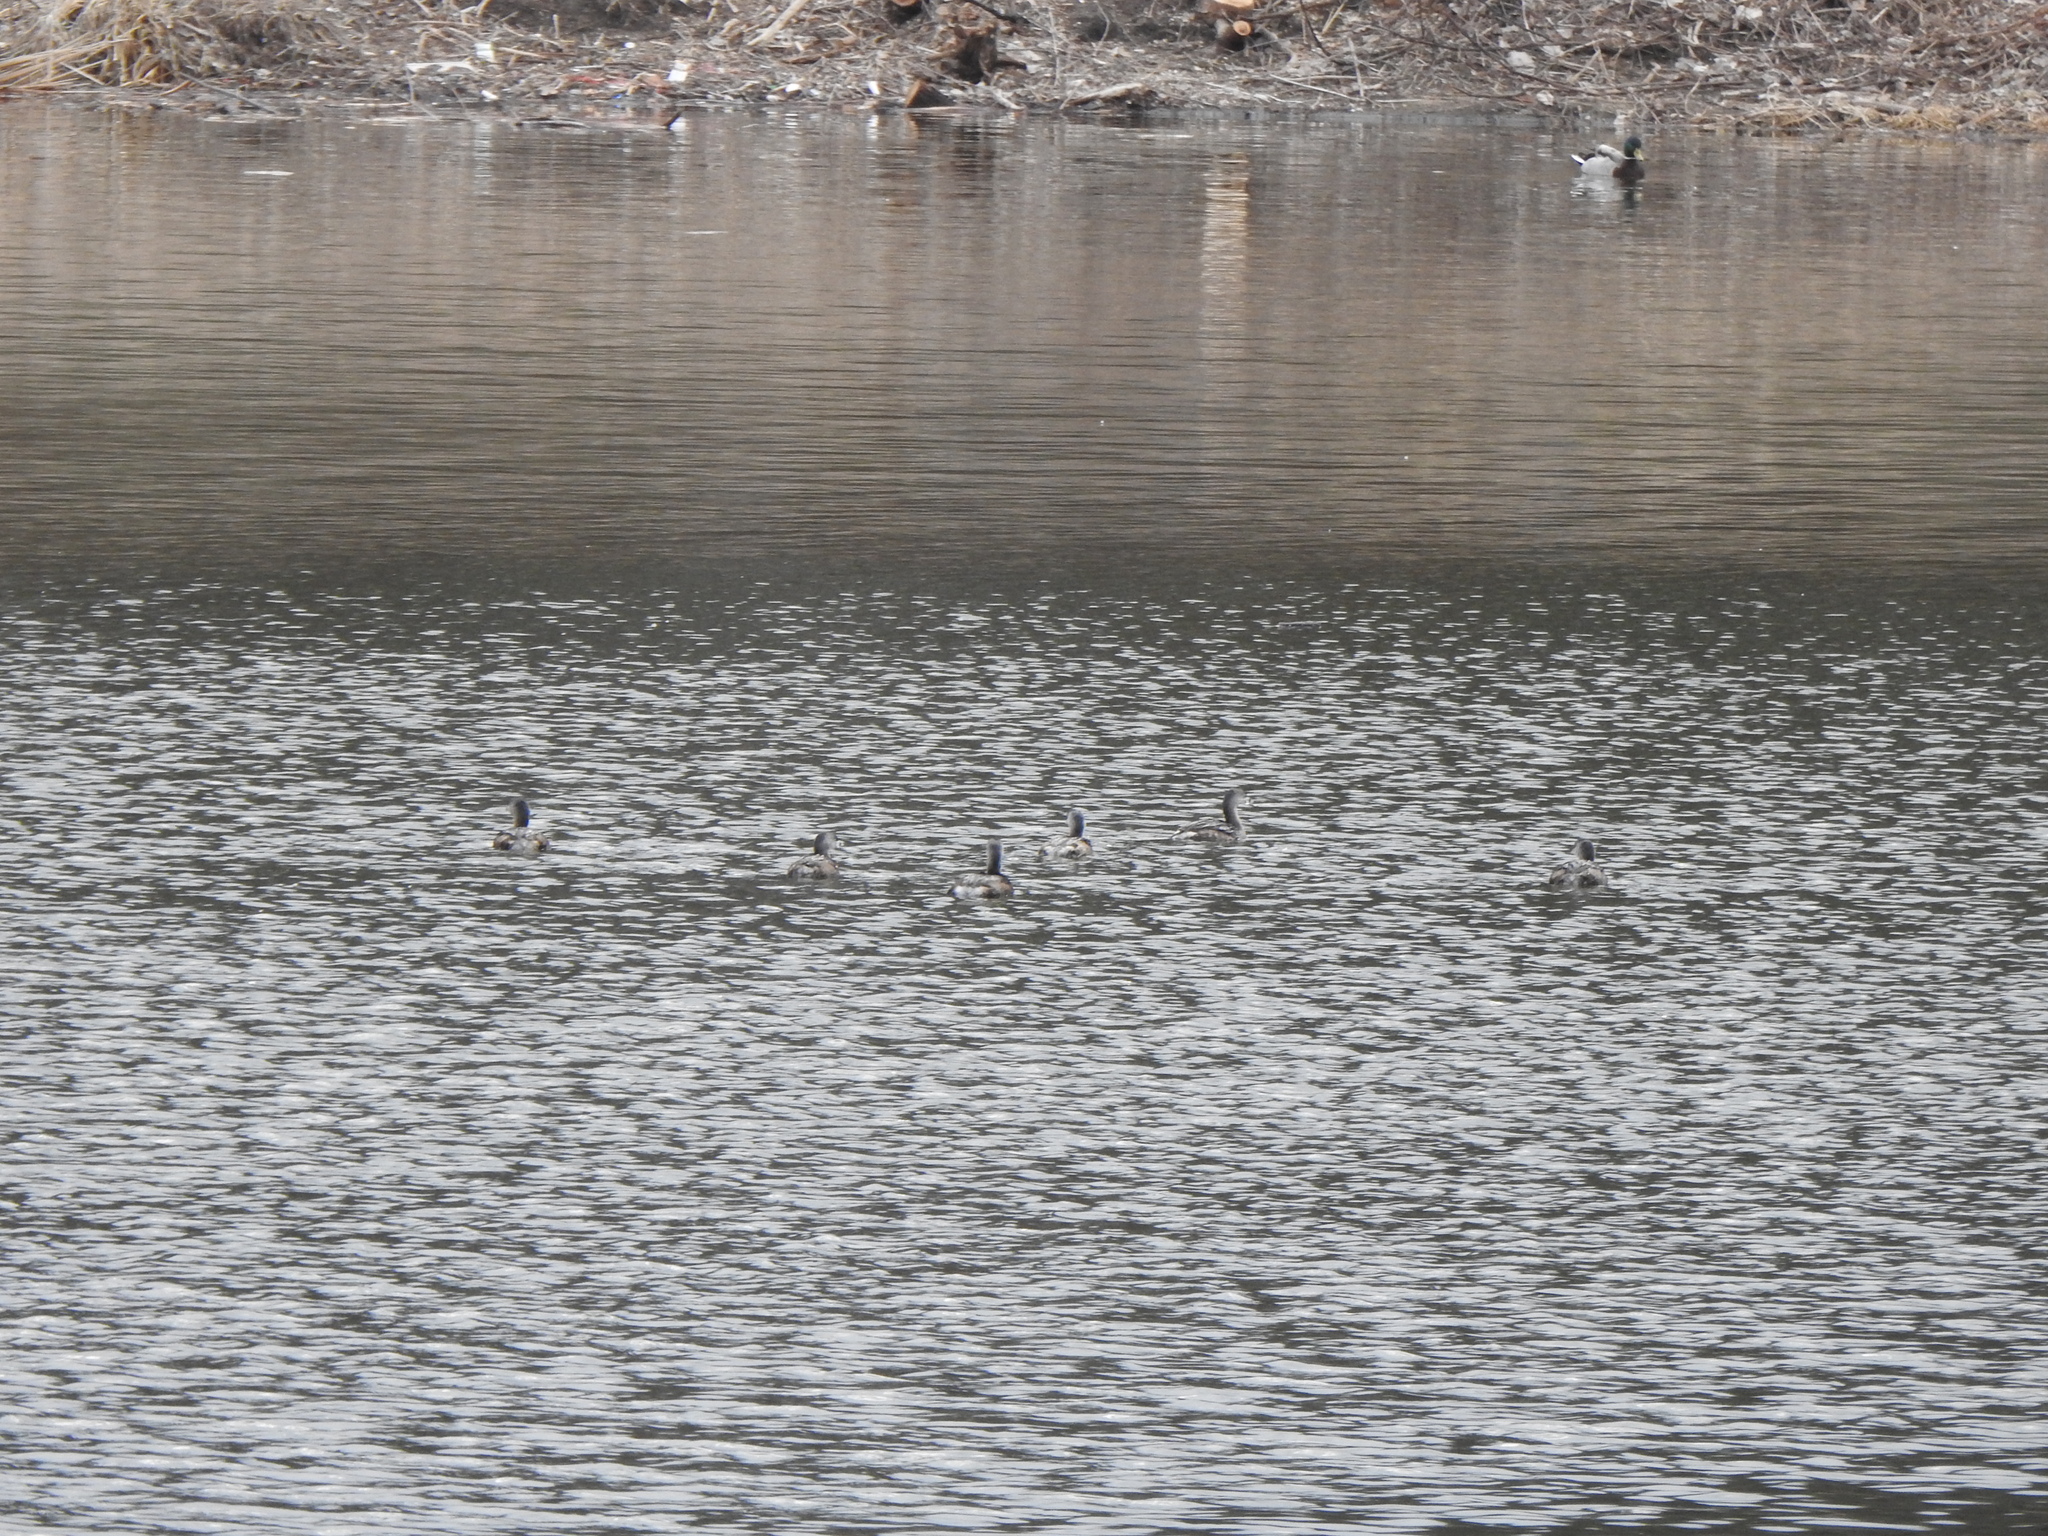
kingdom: Animalia
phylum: Chordata
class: Aves
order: Podicipediformes
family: Podicipedidae
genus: Podilymbus
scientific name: Podilymbus podiceps
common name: Pied-billed grebe
